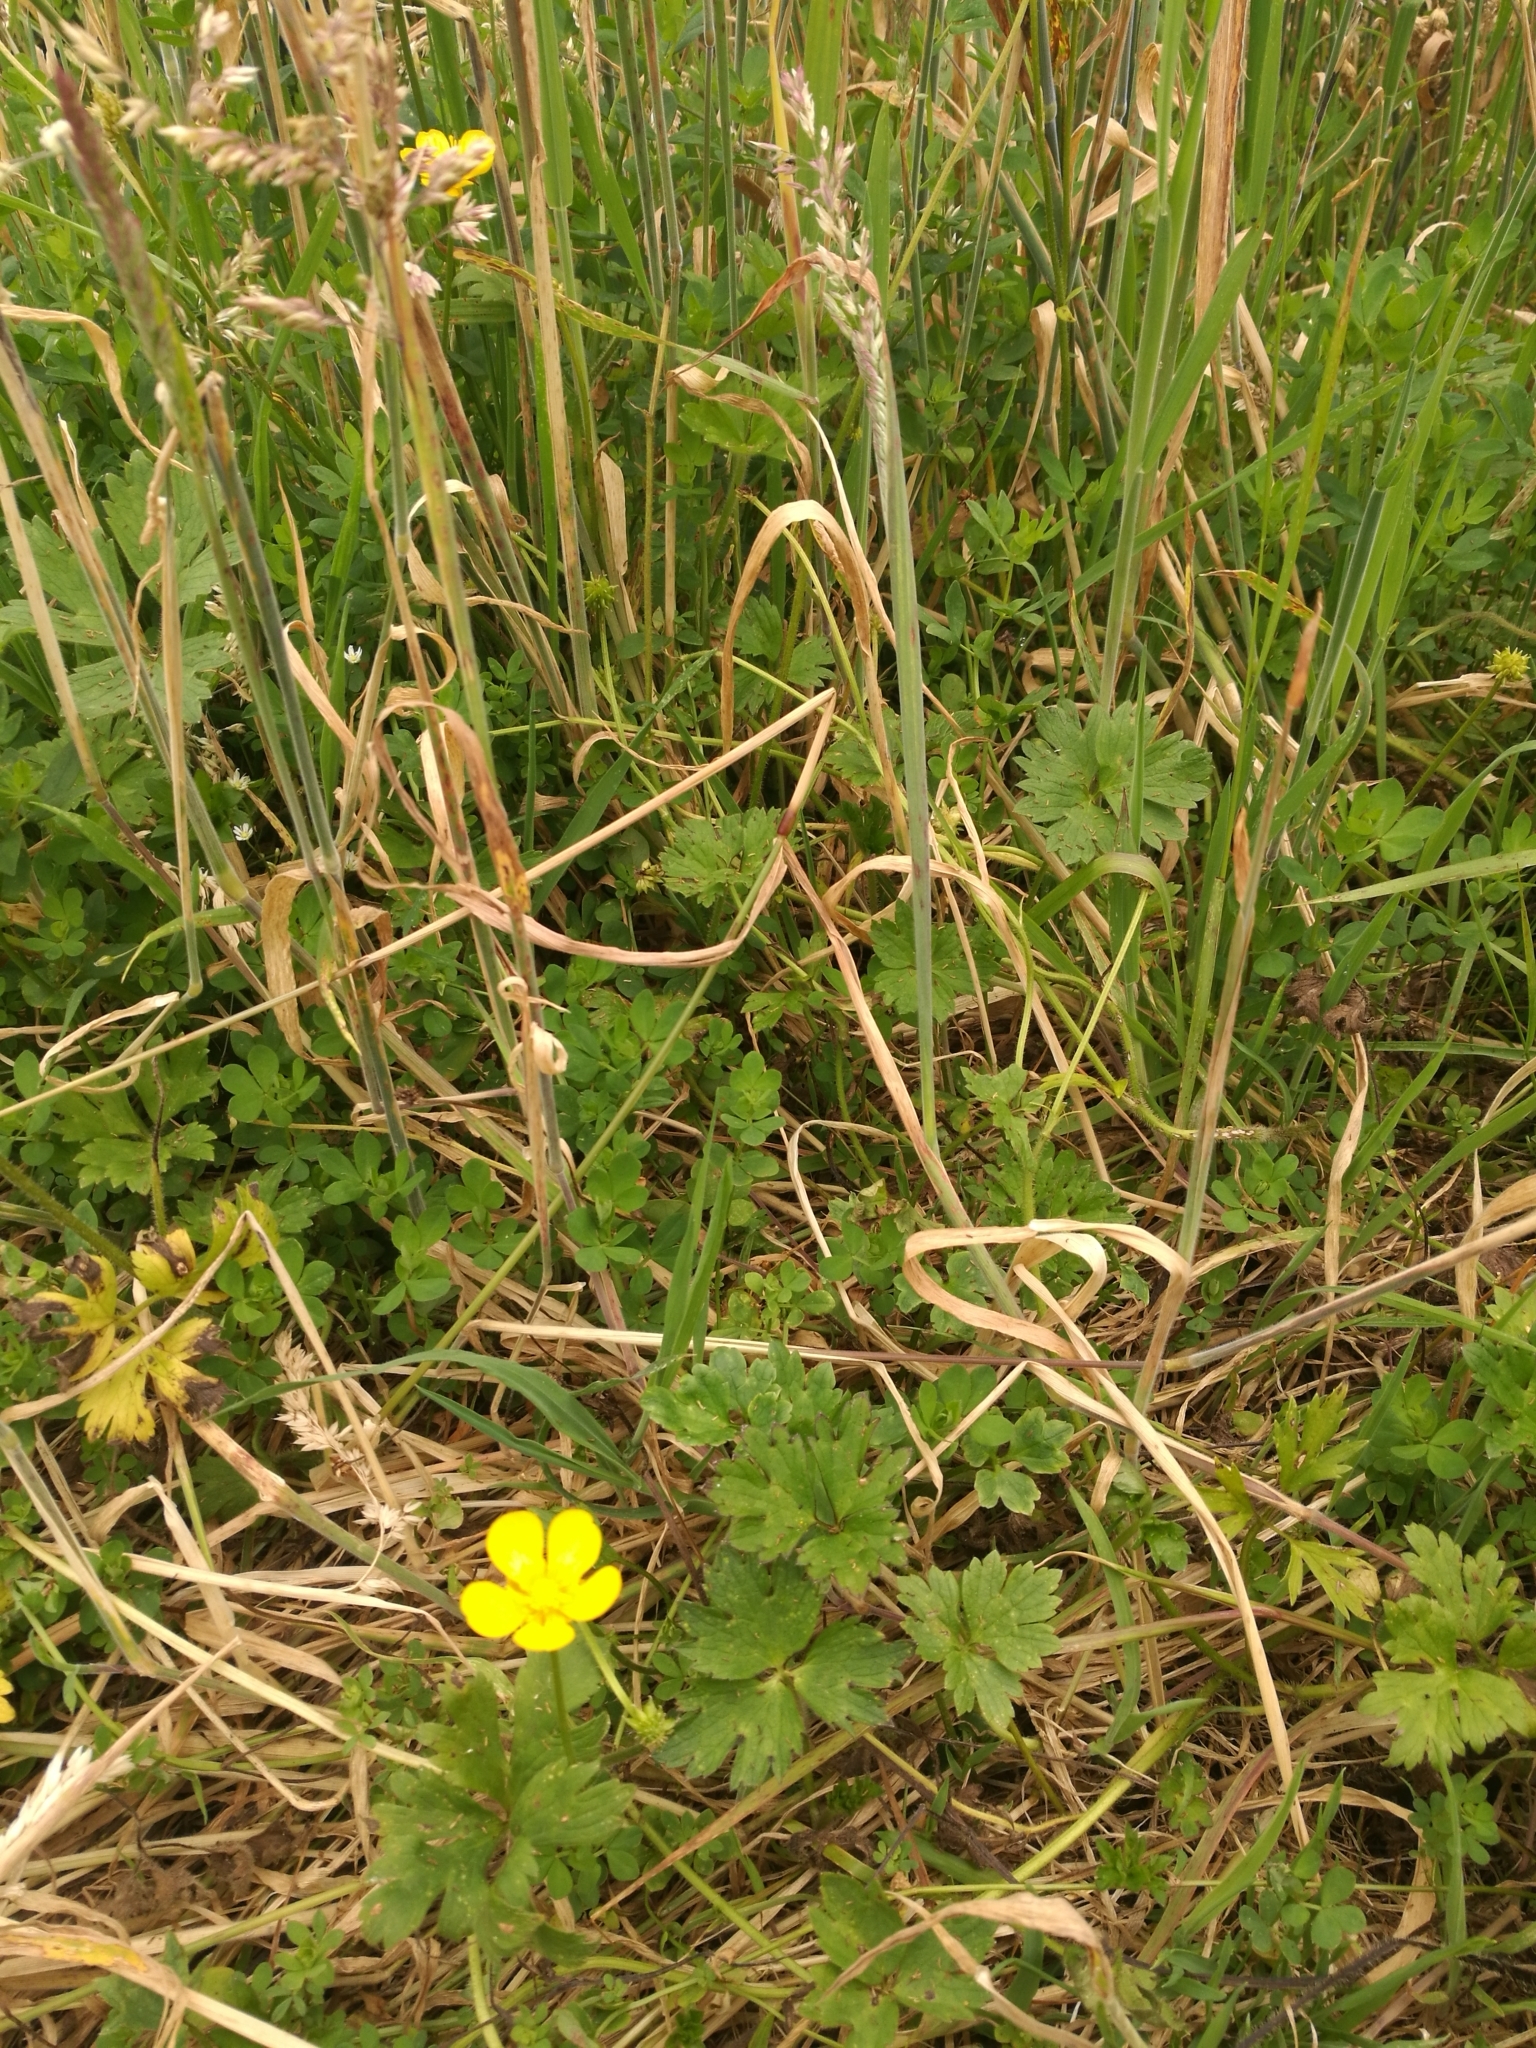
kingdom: Plantae
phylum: Tracheophyta
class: Magnoliopsida
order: Ranunculales
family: Ranunculaceae
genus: Ranunculus
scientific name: Ranunculus repens
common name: Creeping buttercup
